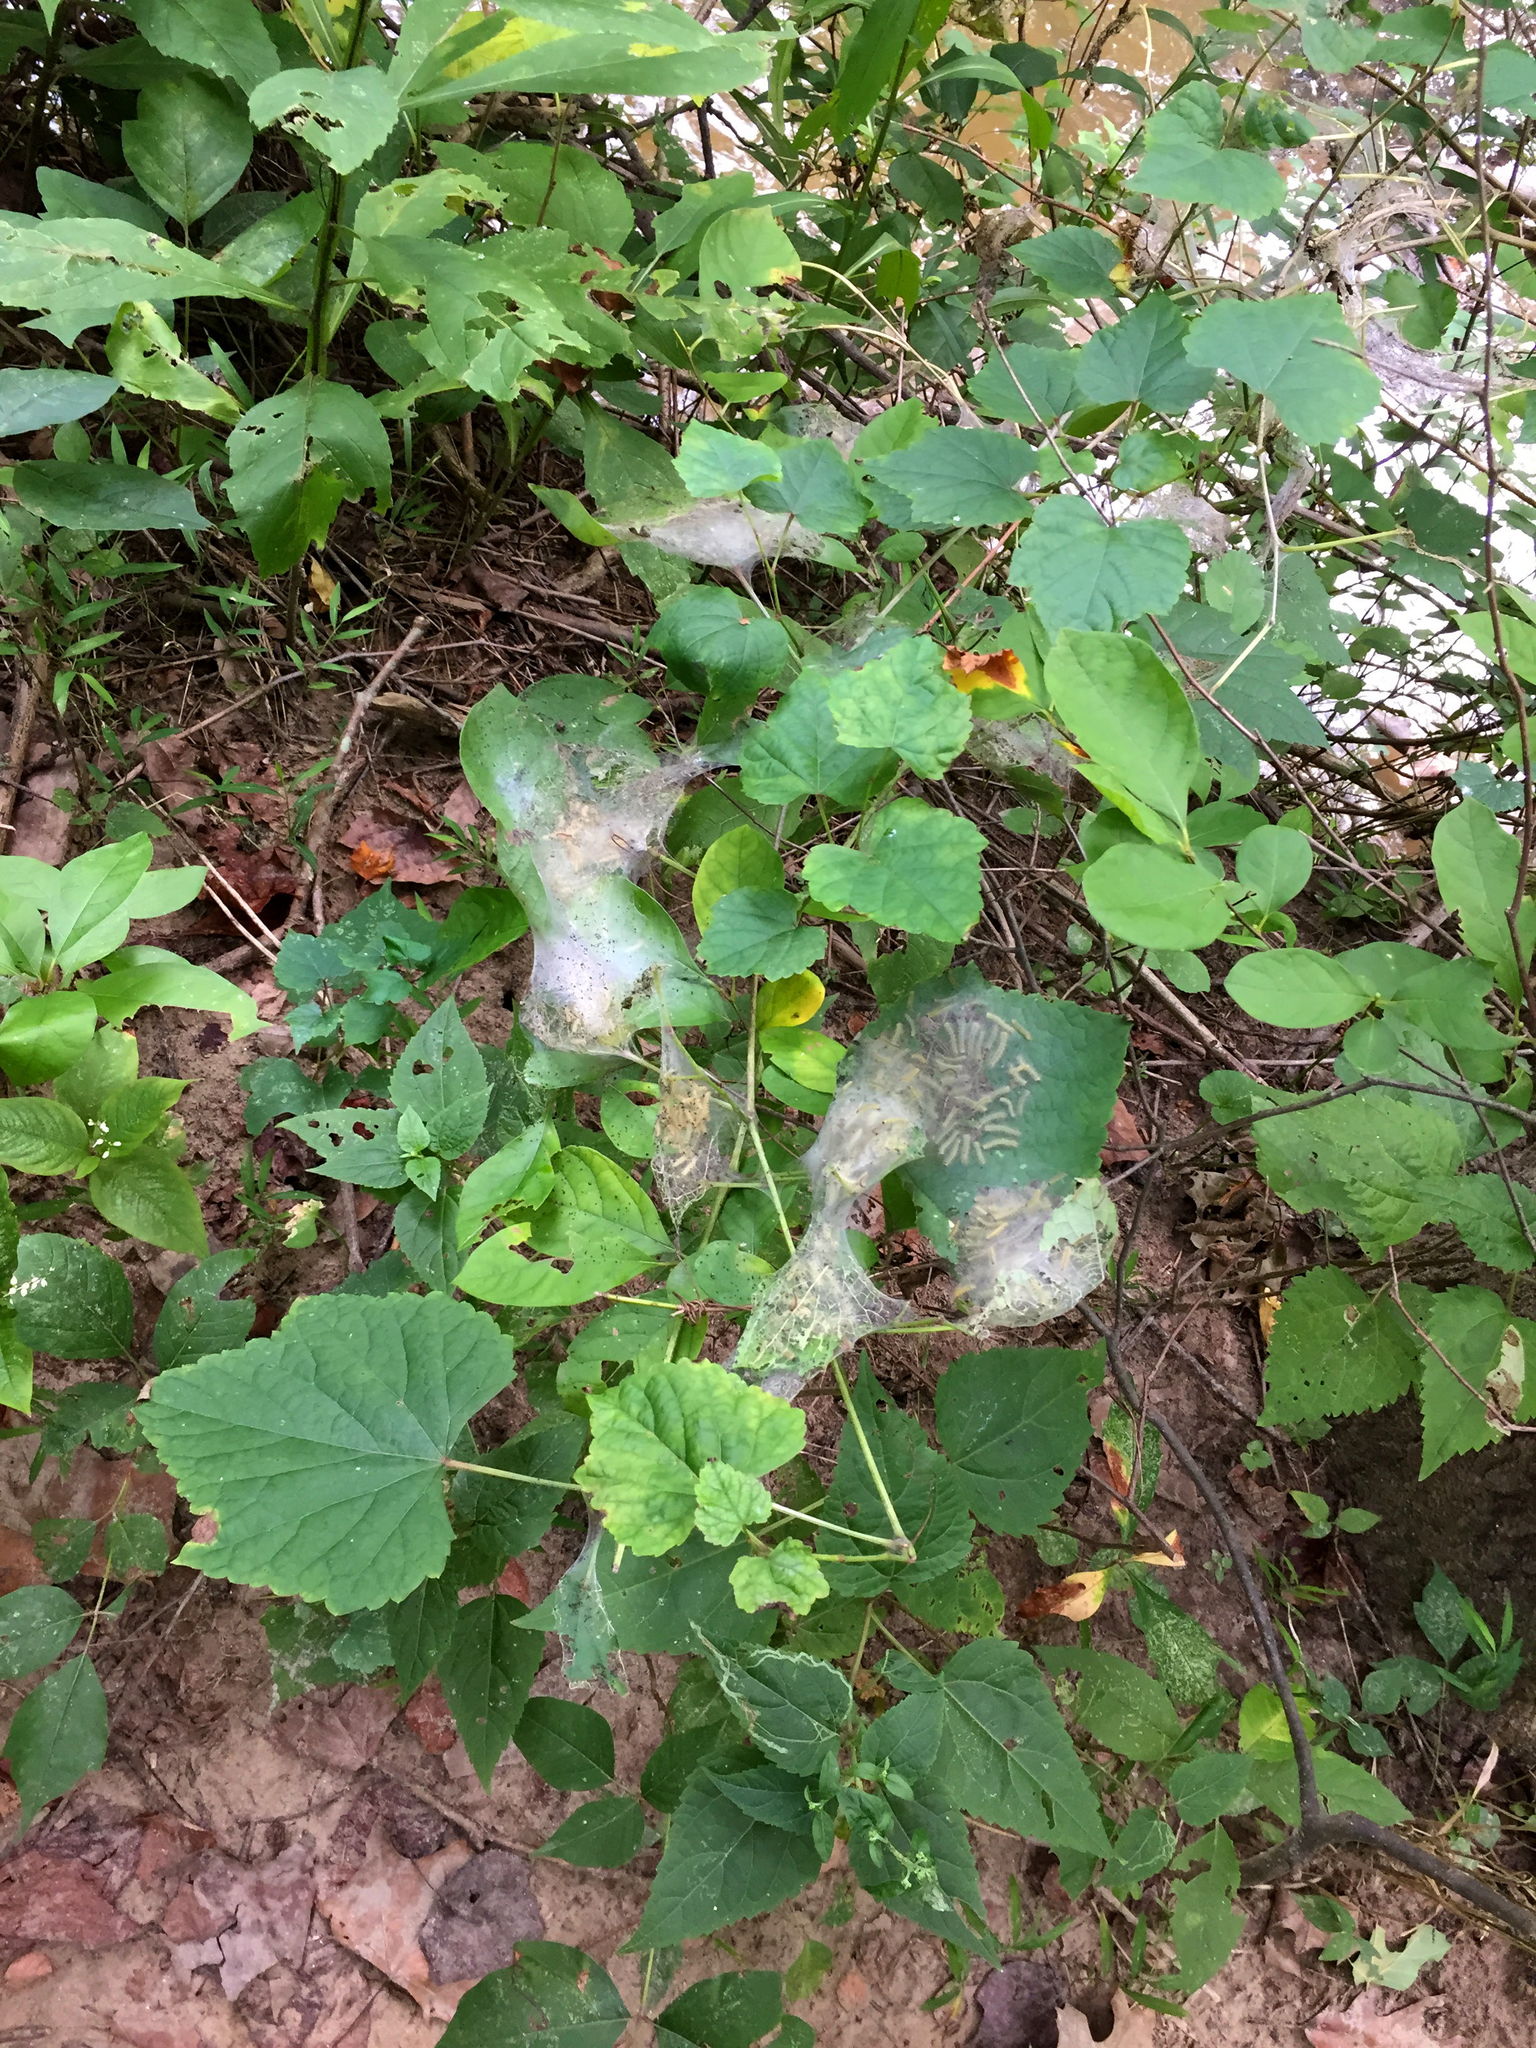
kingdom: Animalia
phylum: Arthropoda
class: Insecta
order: Lepidoptera
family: Erebidae
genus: Hyphantria
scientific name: Hyphantria cunea
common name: American white moth
